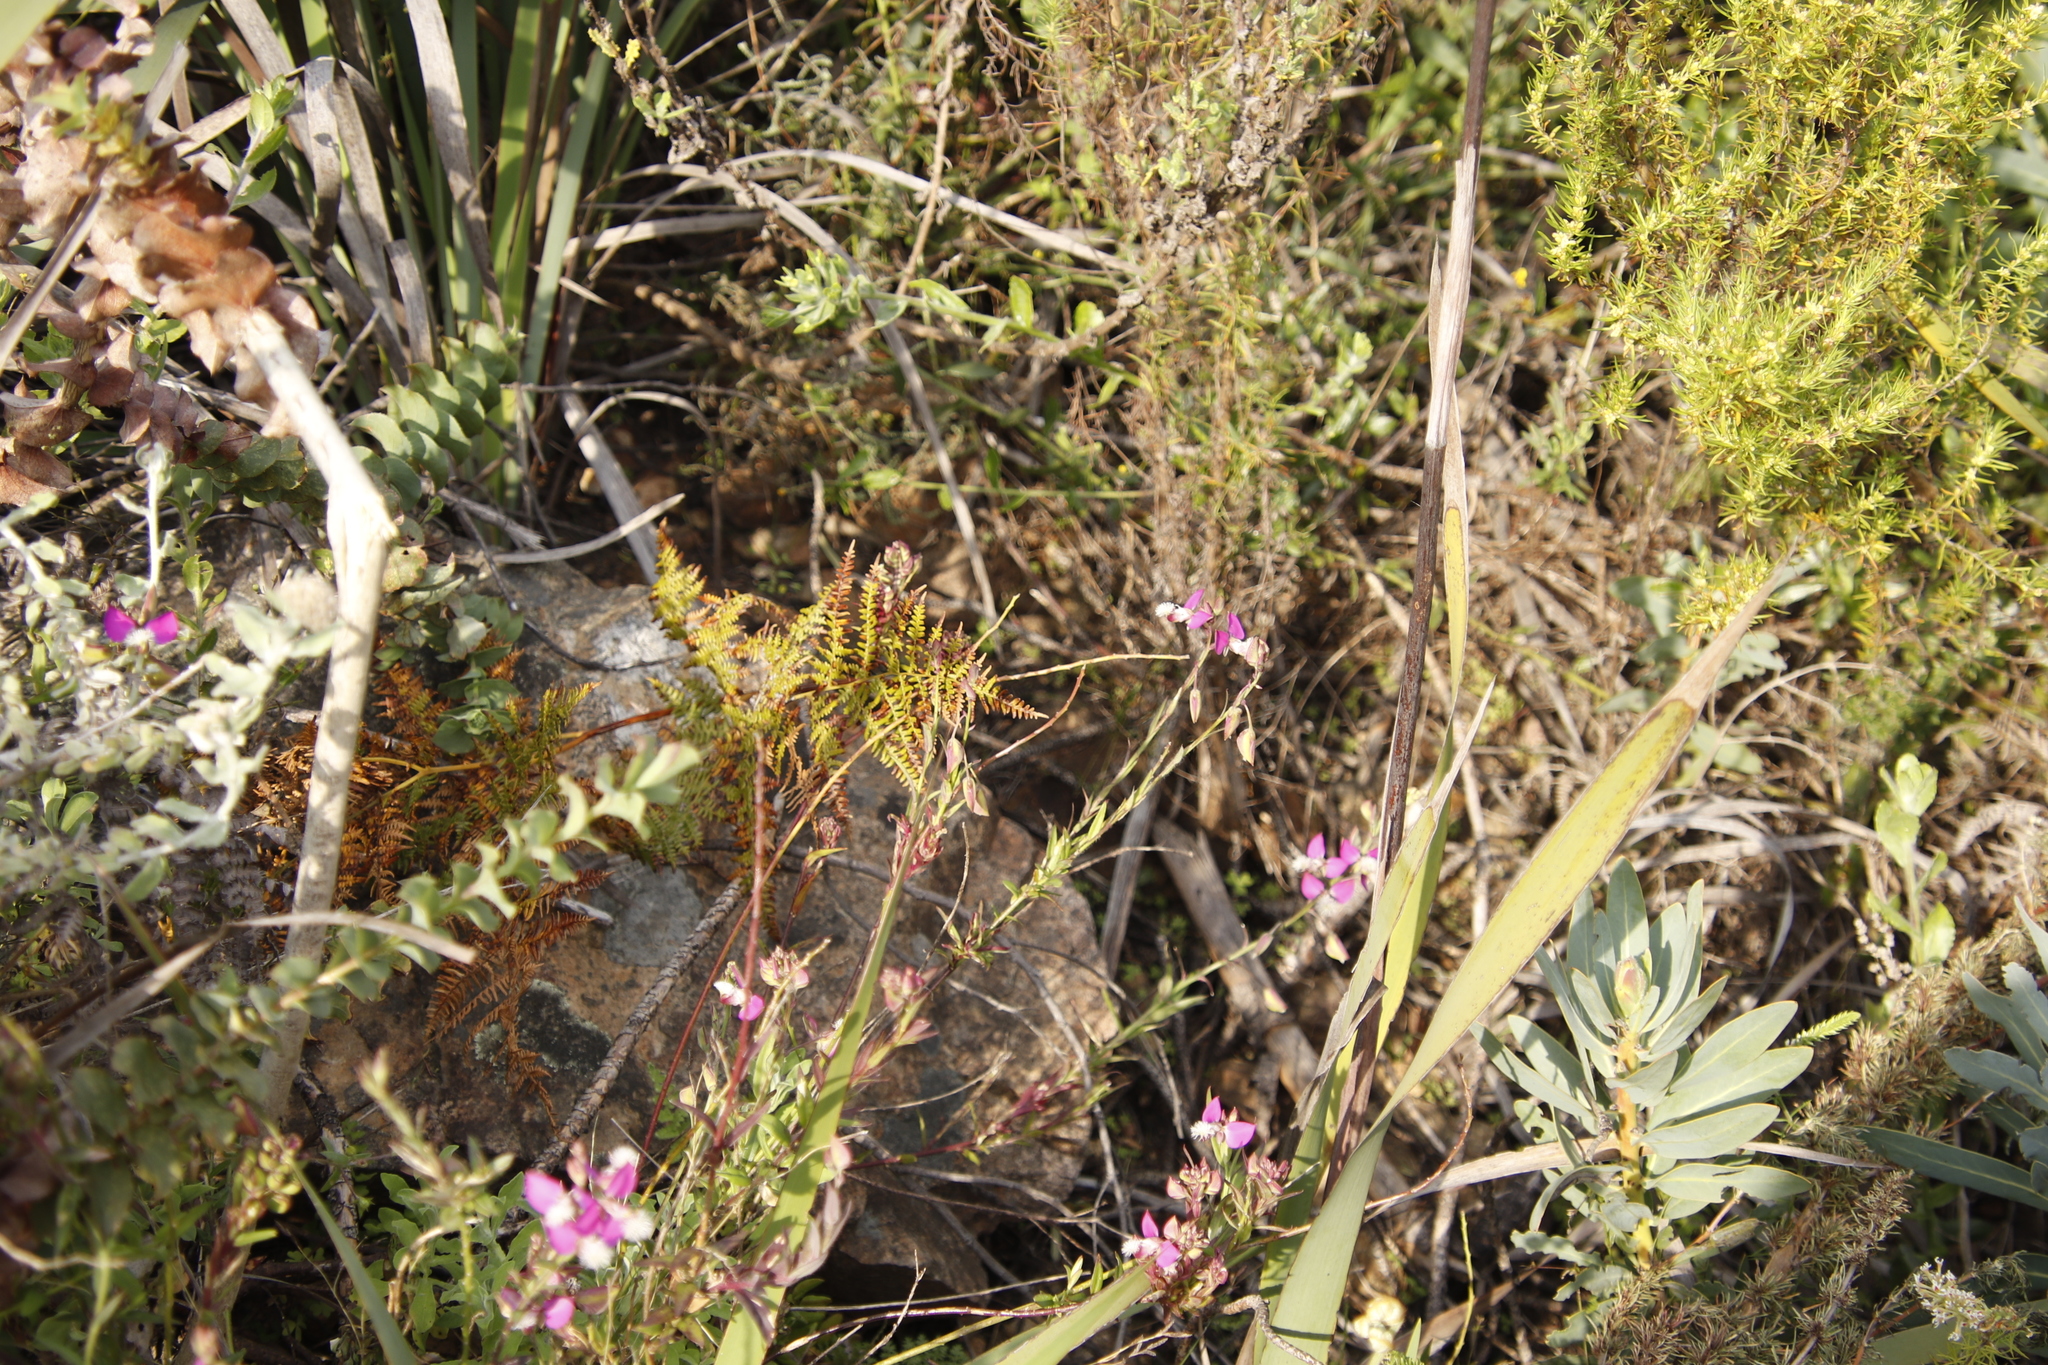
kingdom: Plantae
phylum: Tracheophyta
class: Magnoliopsida
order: Fabales
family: Polygalaceae
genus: Polygala
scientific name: Polygala bracteolata
